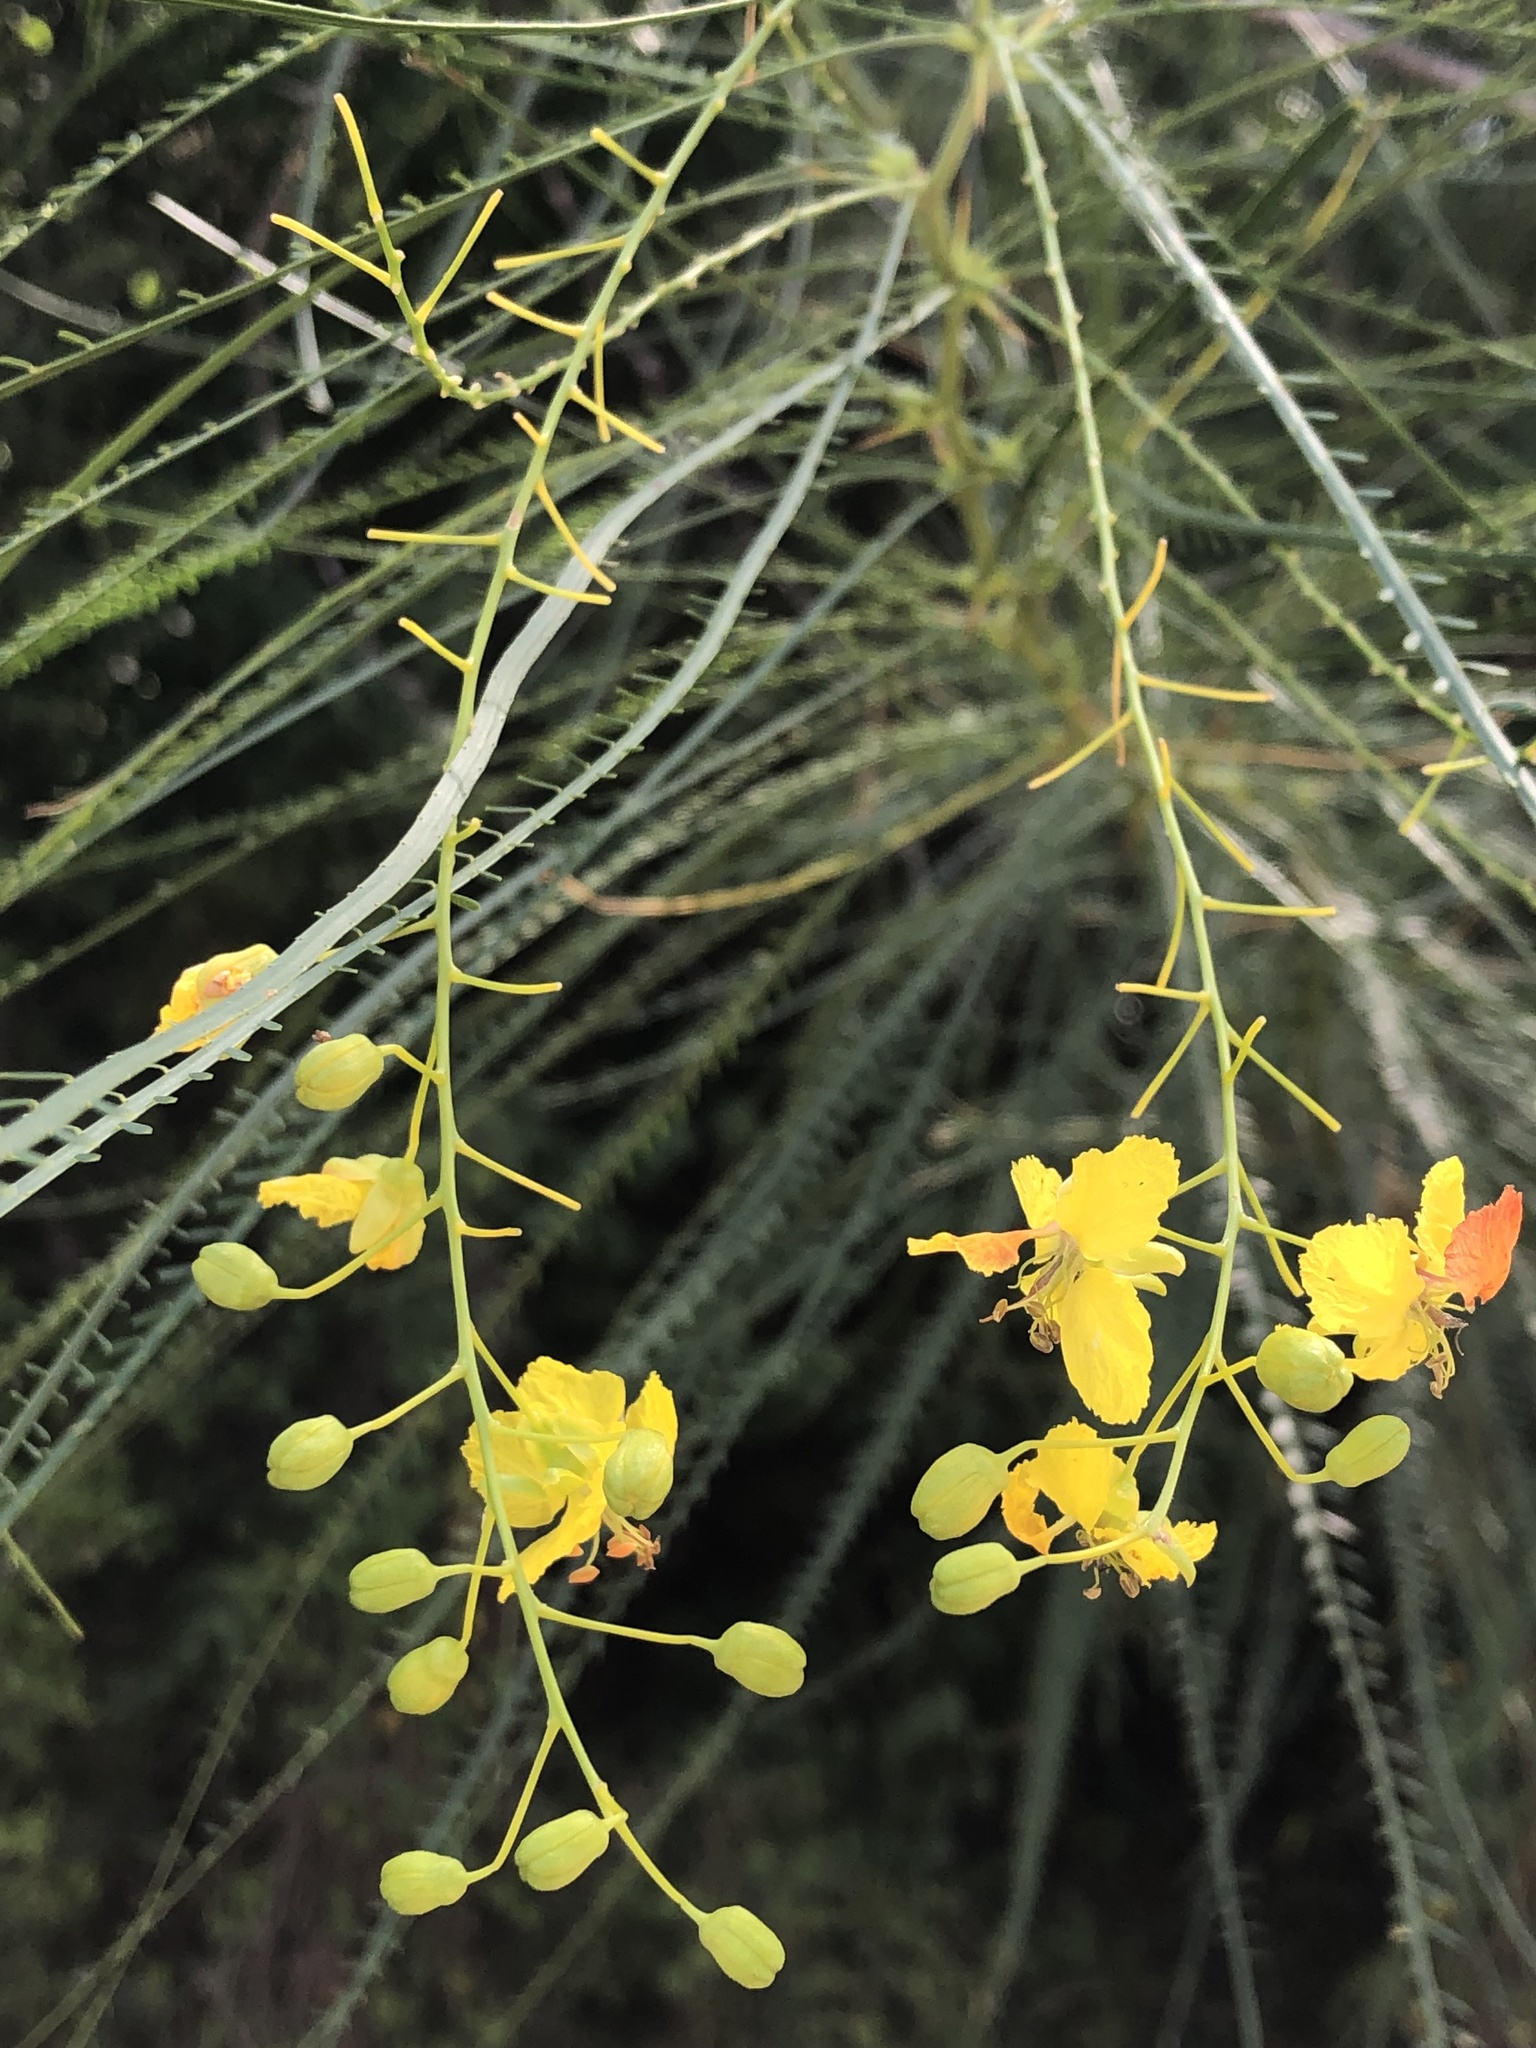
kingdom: Plantae
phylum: Tracheophyta
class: Magnoliopsida
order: Fabales
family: Fabaceae
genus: Parkinsonia
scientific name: Parkinsonia aculeata
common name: Jerusalem thorn
